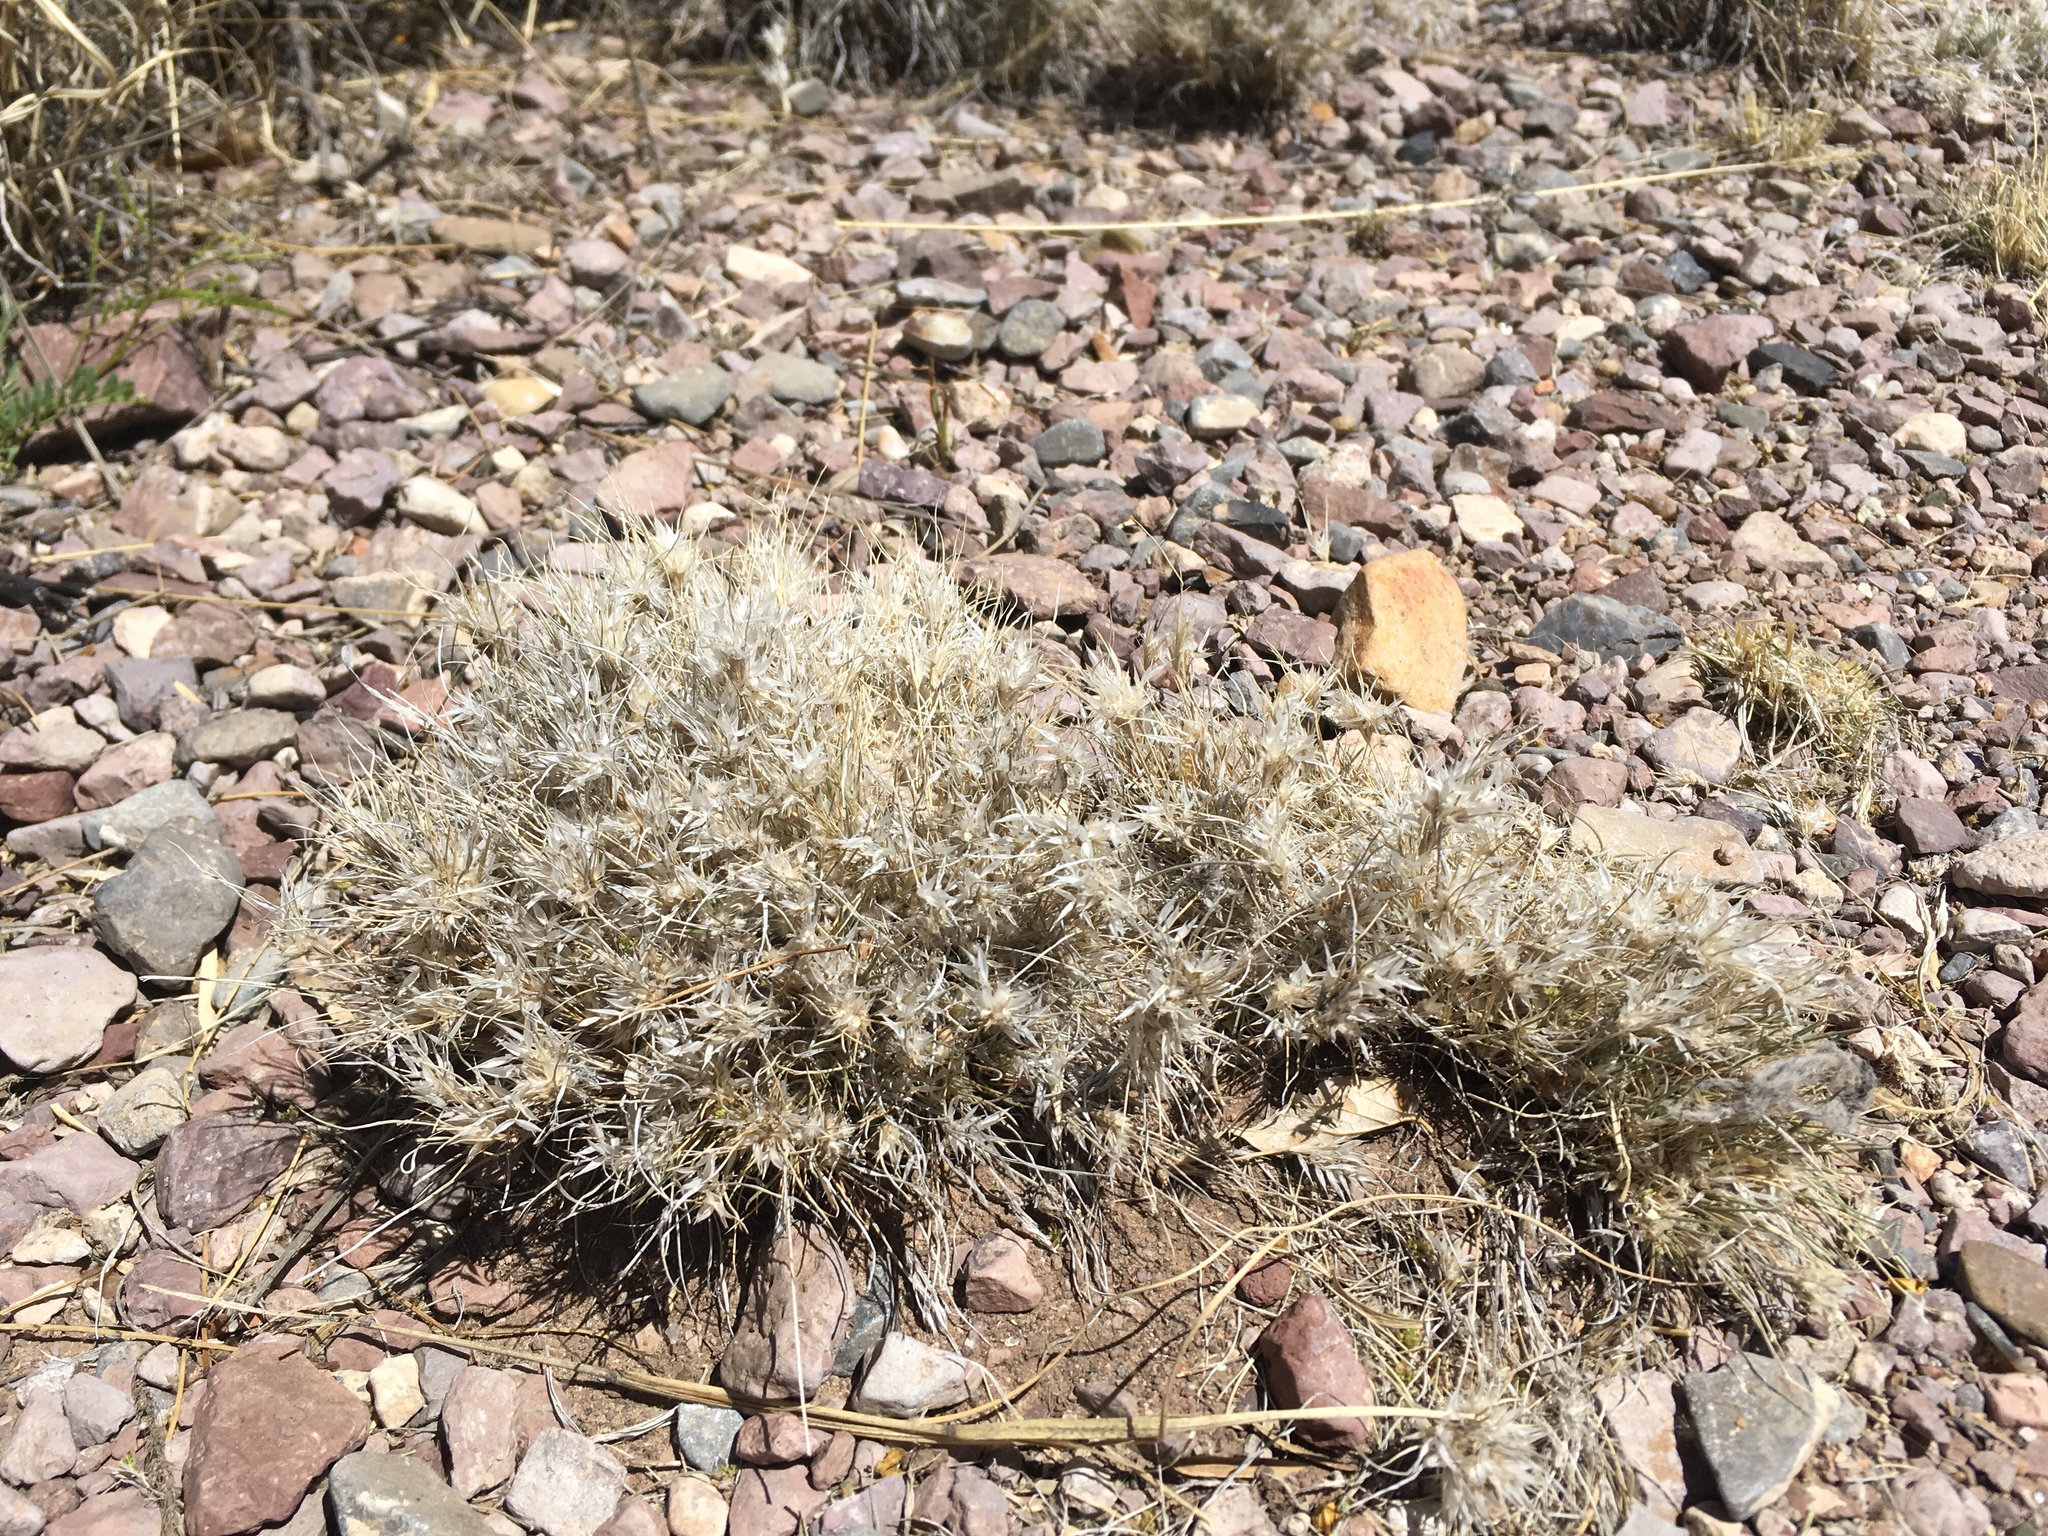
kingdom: Plantae
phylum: Tracheophyta
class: Liliopsida
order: Poales
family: Poaceae
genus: Dasyochloa
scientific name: Dasyochloa pulchella
